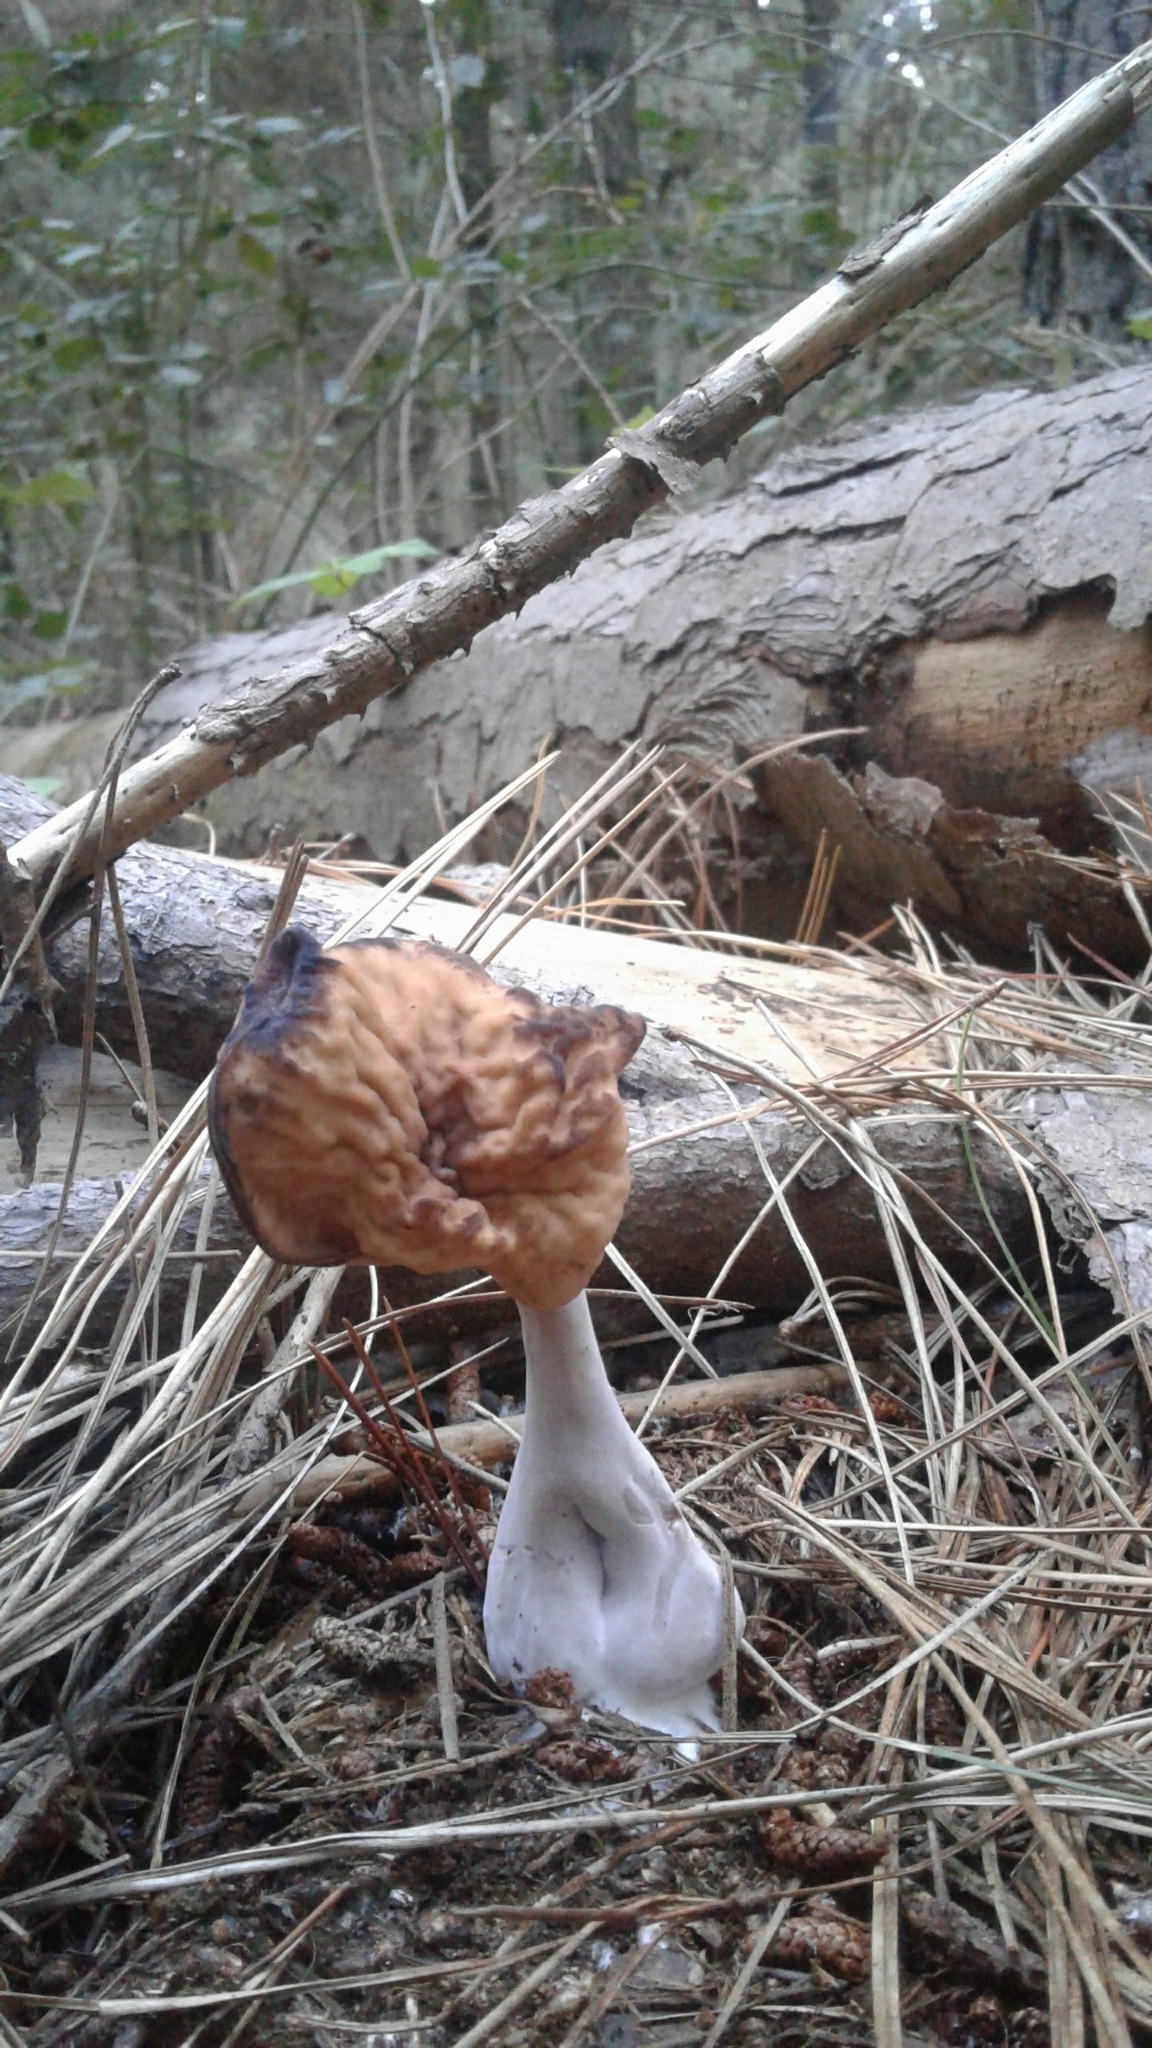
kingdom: Fungi
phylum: Ascomycota
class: Pezizomycetes
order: Pezizales
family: Discinaceae
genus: Gyromitra
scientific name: Gyromitra infula
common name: Pouched false morel
